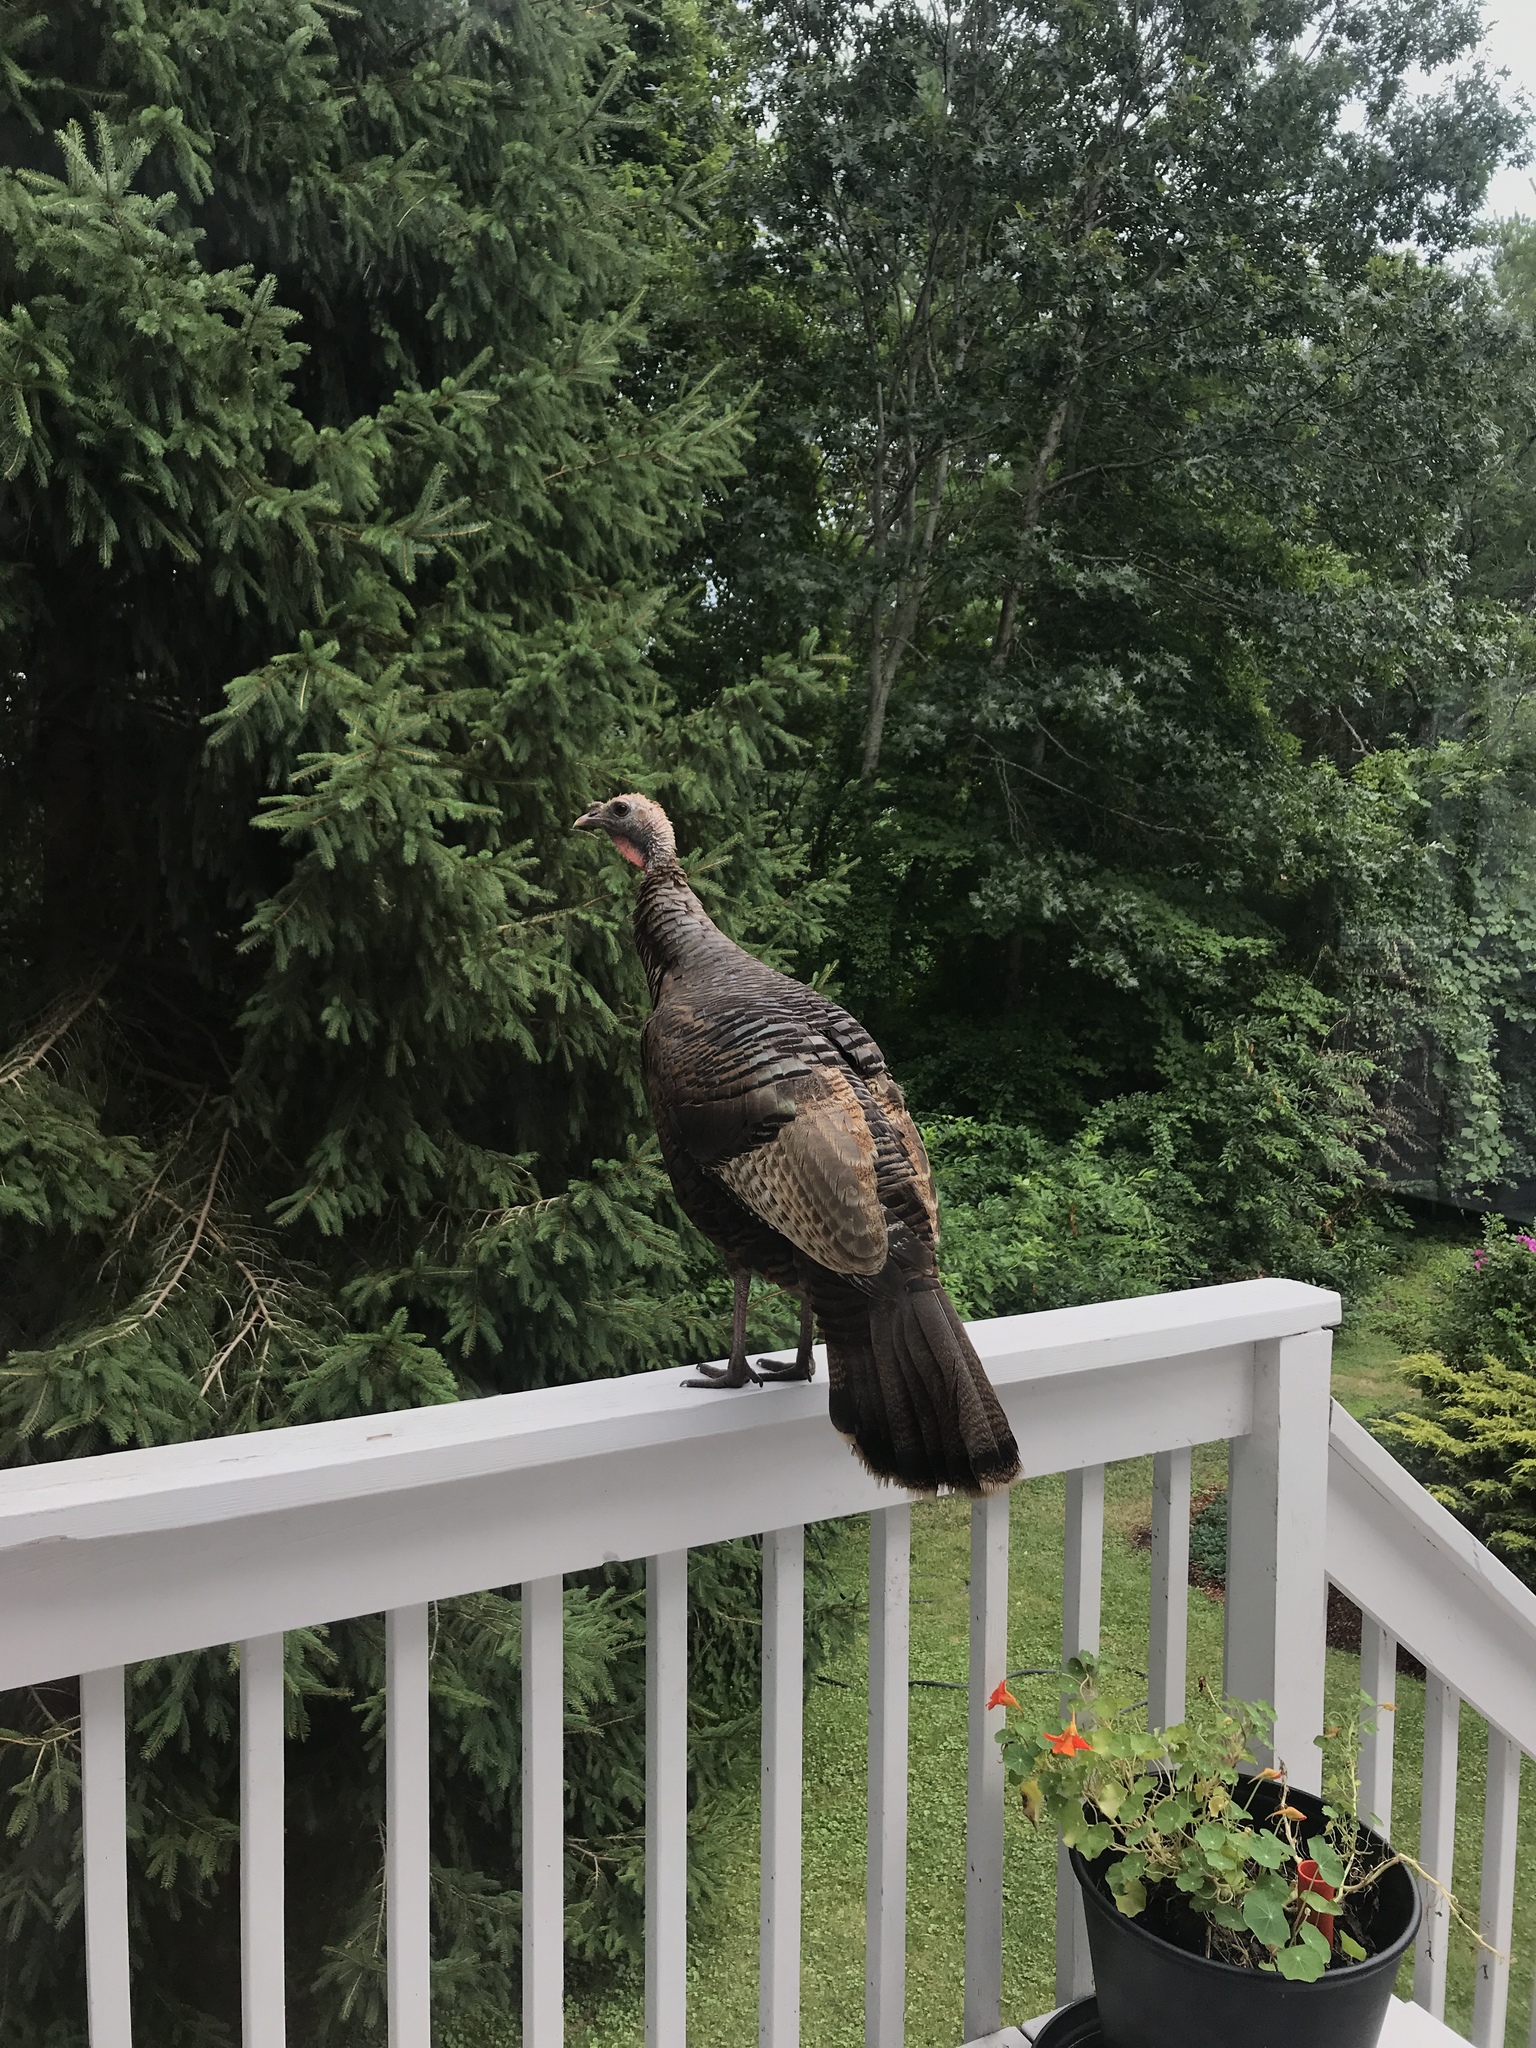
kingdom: Animalia
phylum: Chordata
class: Aves
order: Galliformes
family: Phasianidae
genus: Meleagris
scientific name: Meleagris gallopavo
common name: Wild turkey
